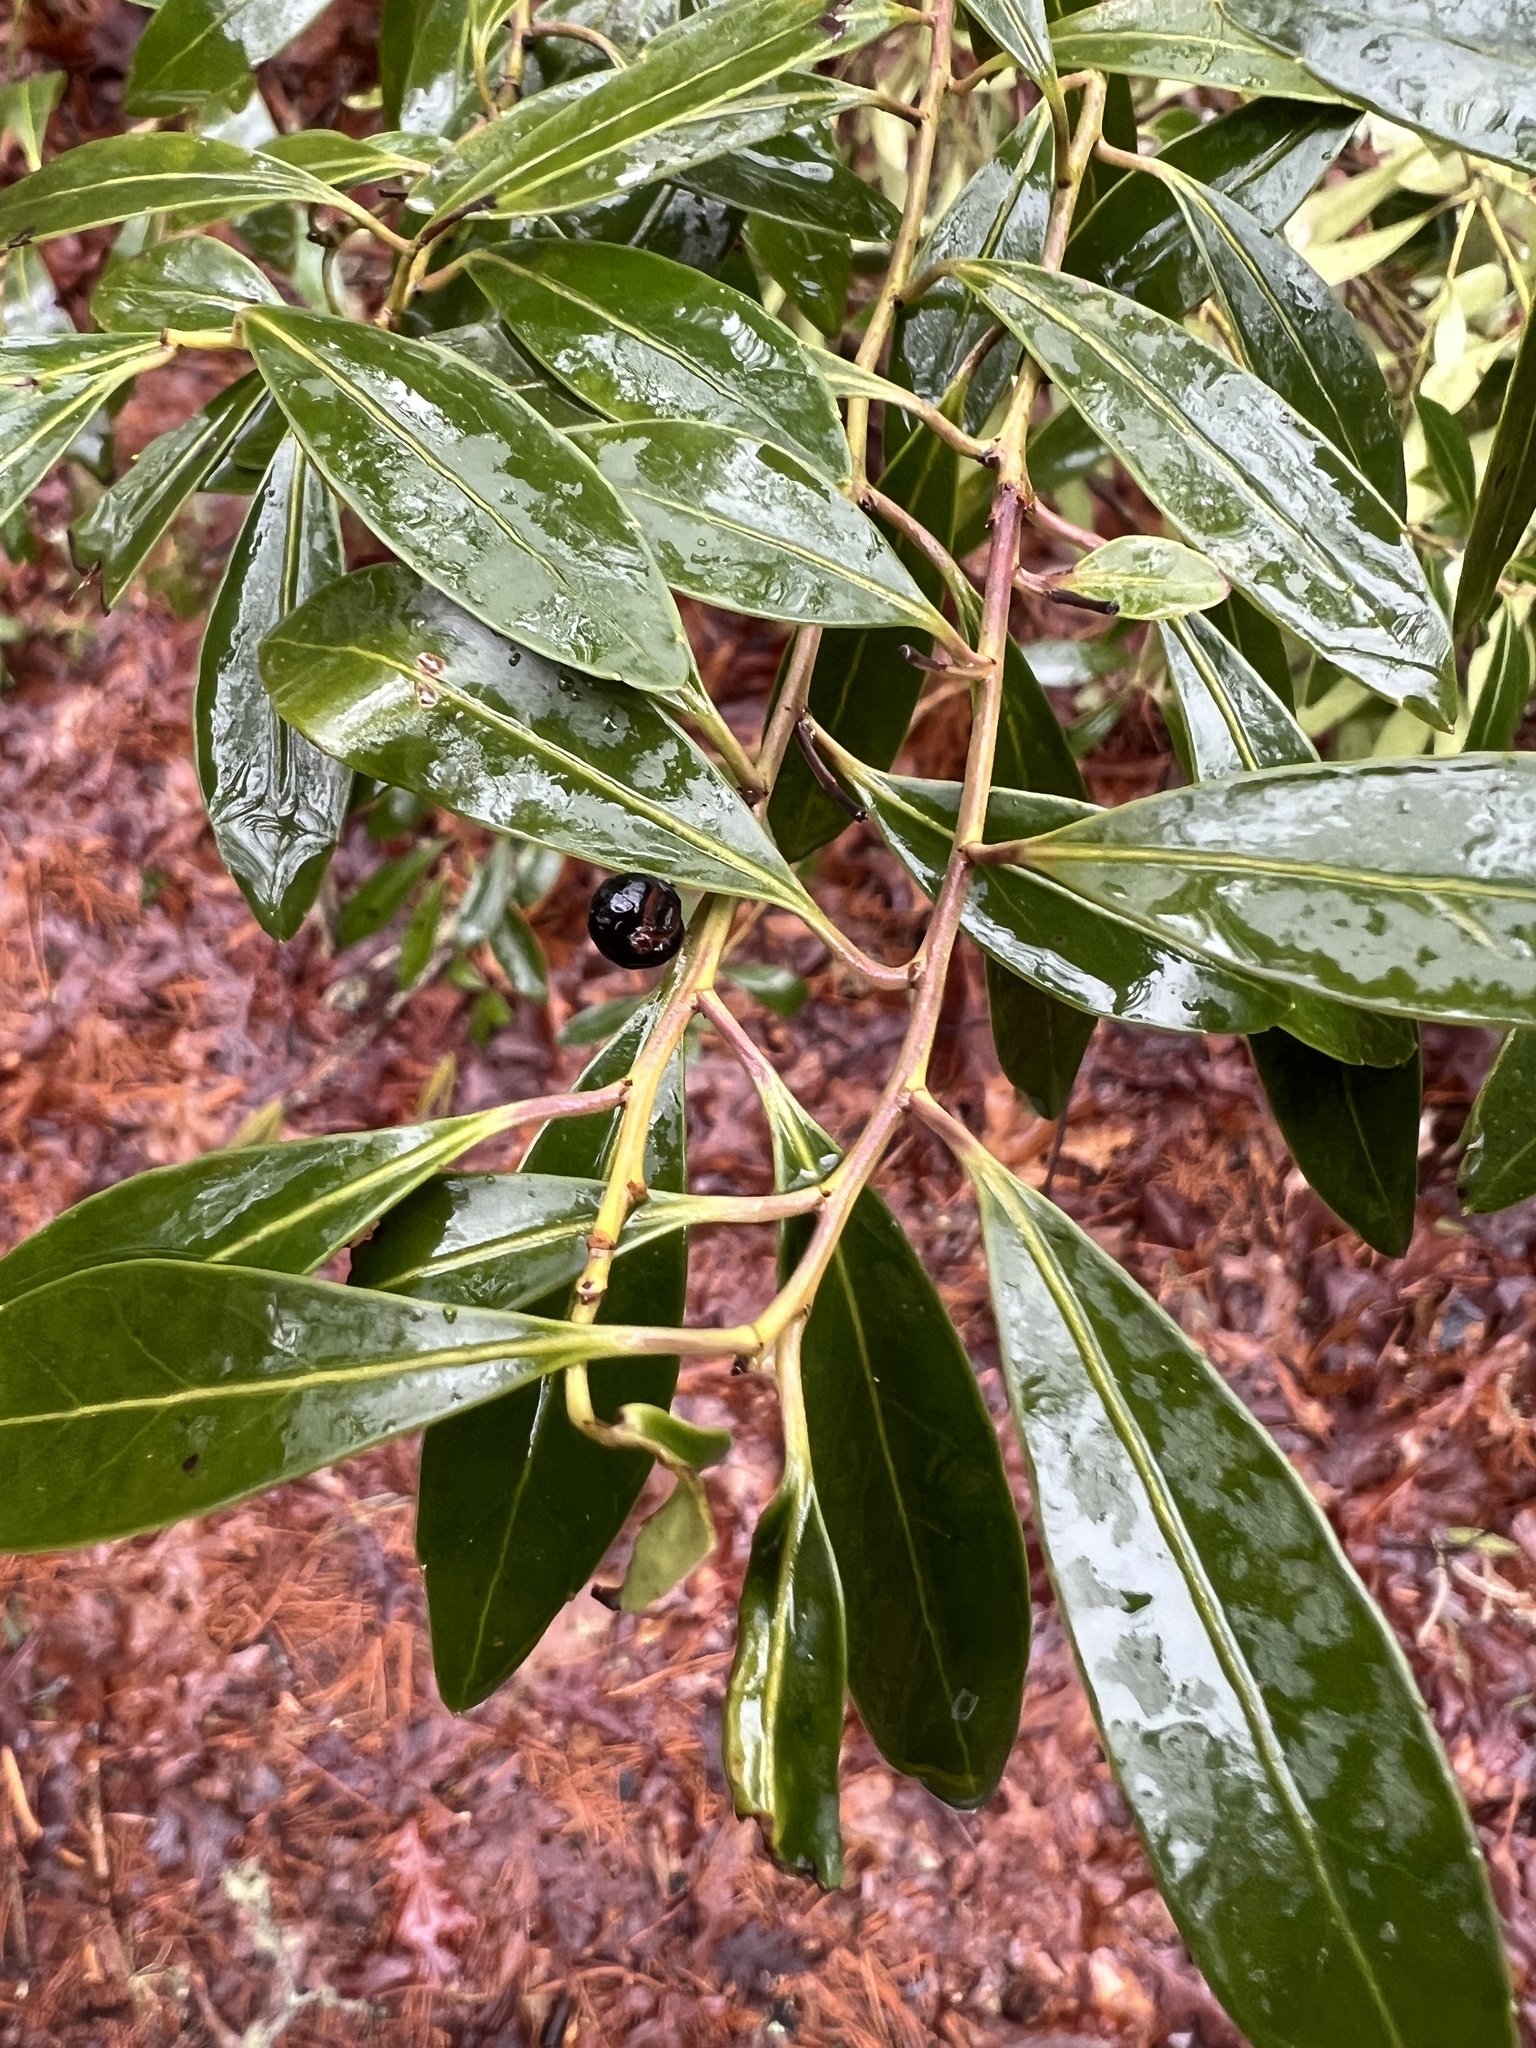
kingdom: Plantae
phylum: Tracheophyta
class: Magnoliopsida
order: Aquifoliales
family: Aquifoliaceae
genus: Ilex
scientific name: Ilex glabra
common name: Bitter gallberry
